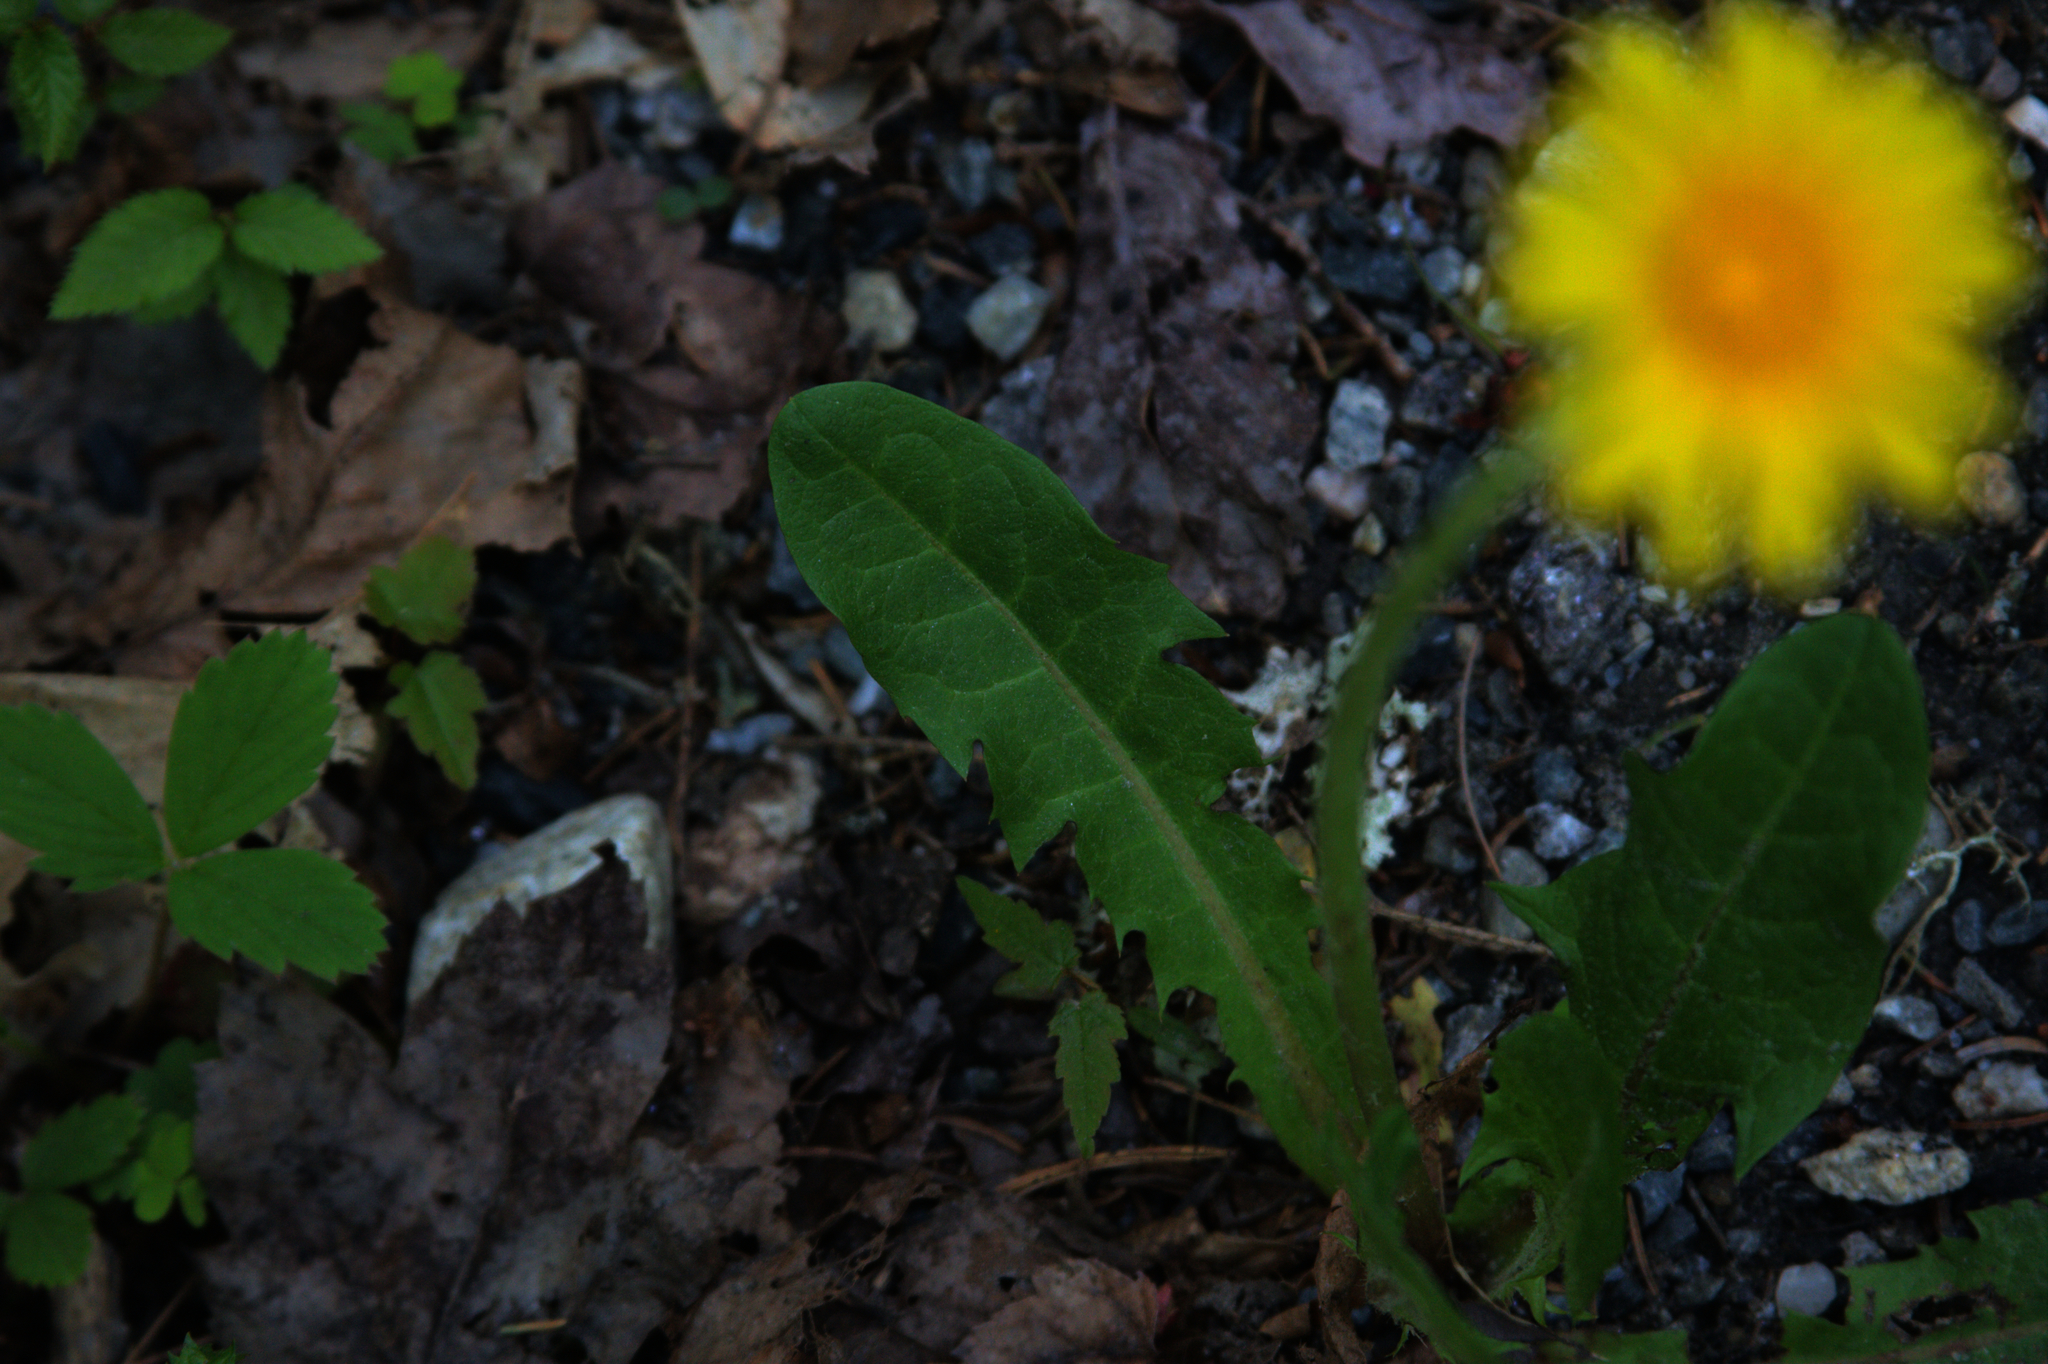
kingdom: Plantae
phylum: Tracheophyta
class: Magnoliopsida
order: Asterales
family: Asteraceae
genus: Taraxacum
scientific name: Taraxacum officinale
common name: Common dandelion
